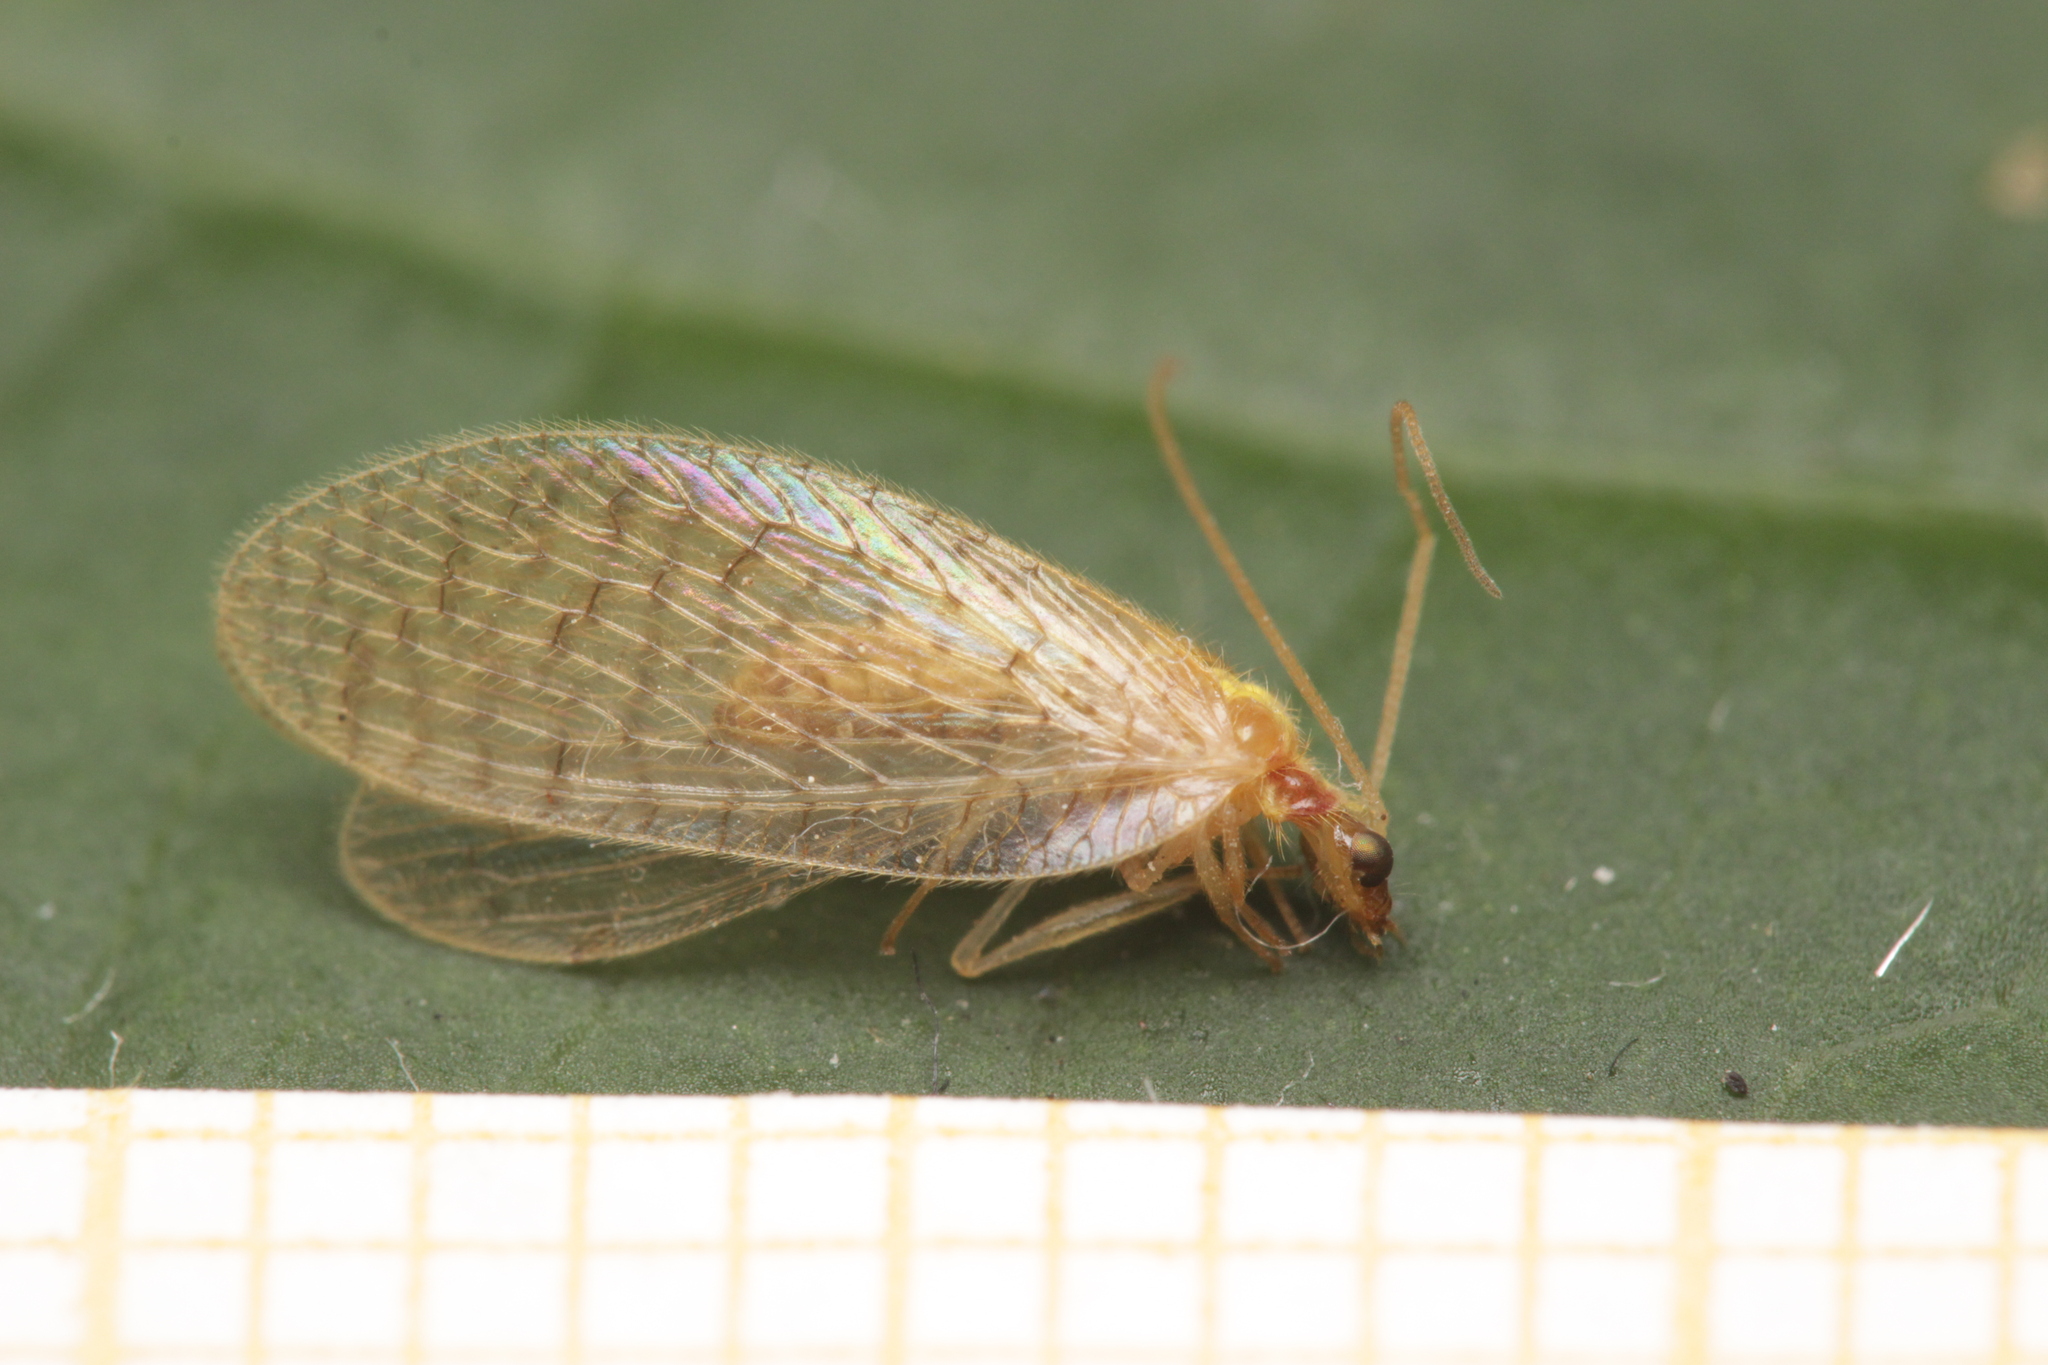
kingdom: Animalia
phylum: Arthropoda
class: Insecta
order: Neuroptera
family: Hemerobiidae
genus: Hemerobius
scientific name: Hemerobius micans
